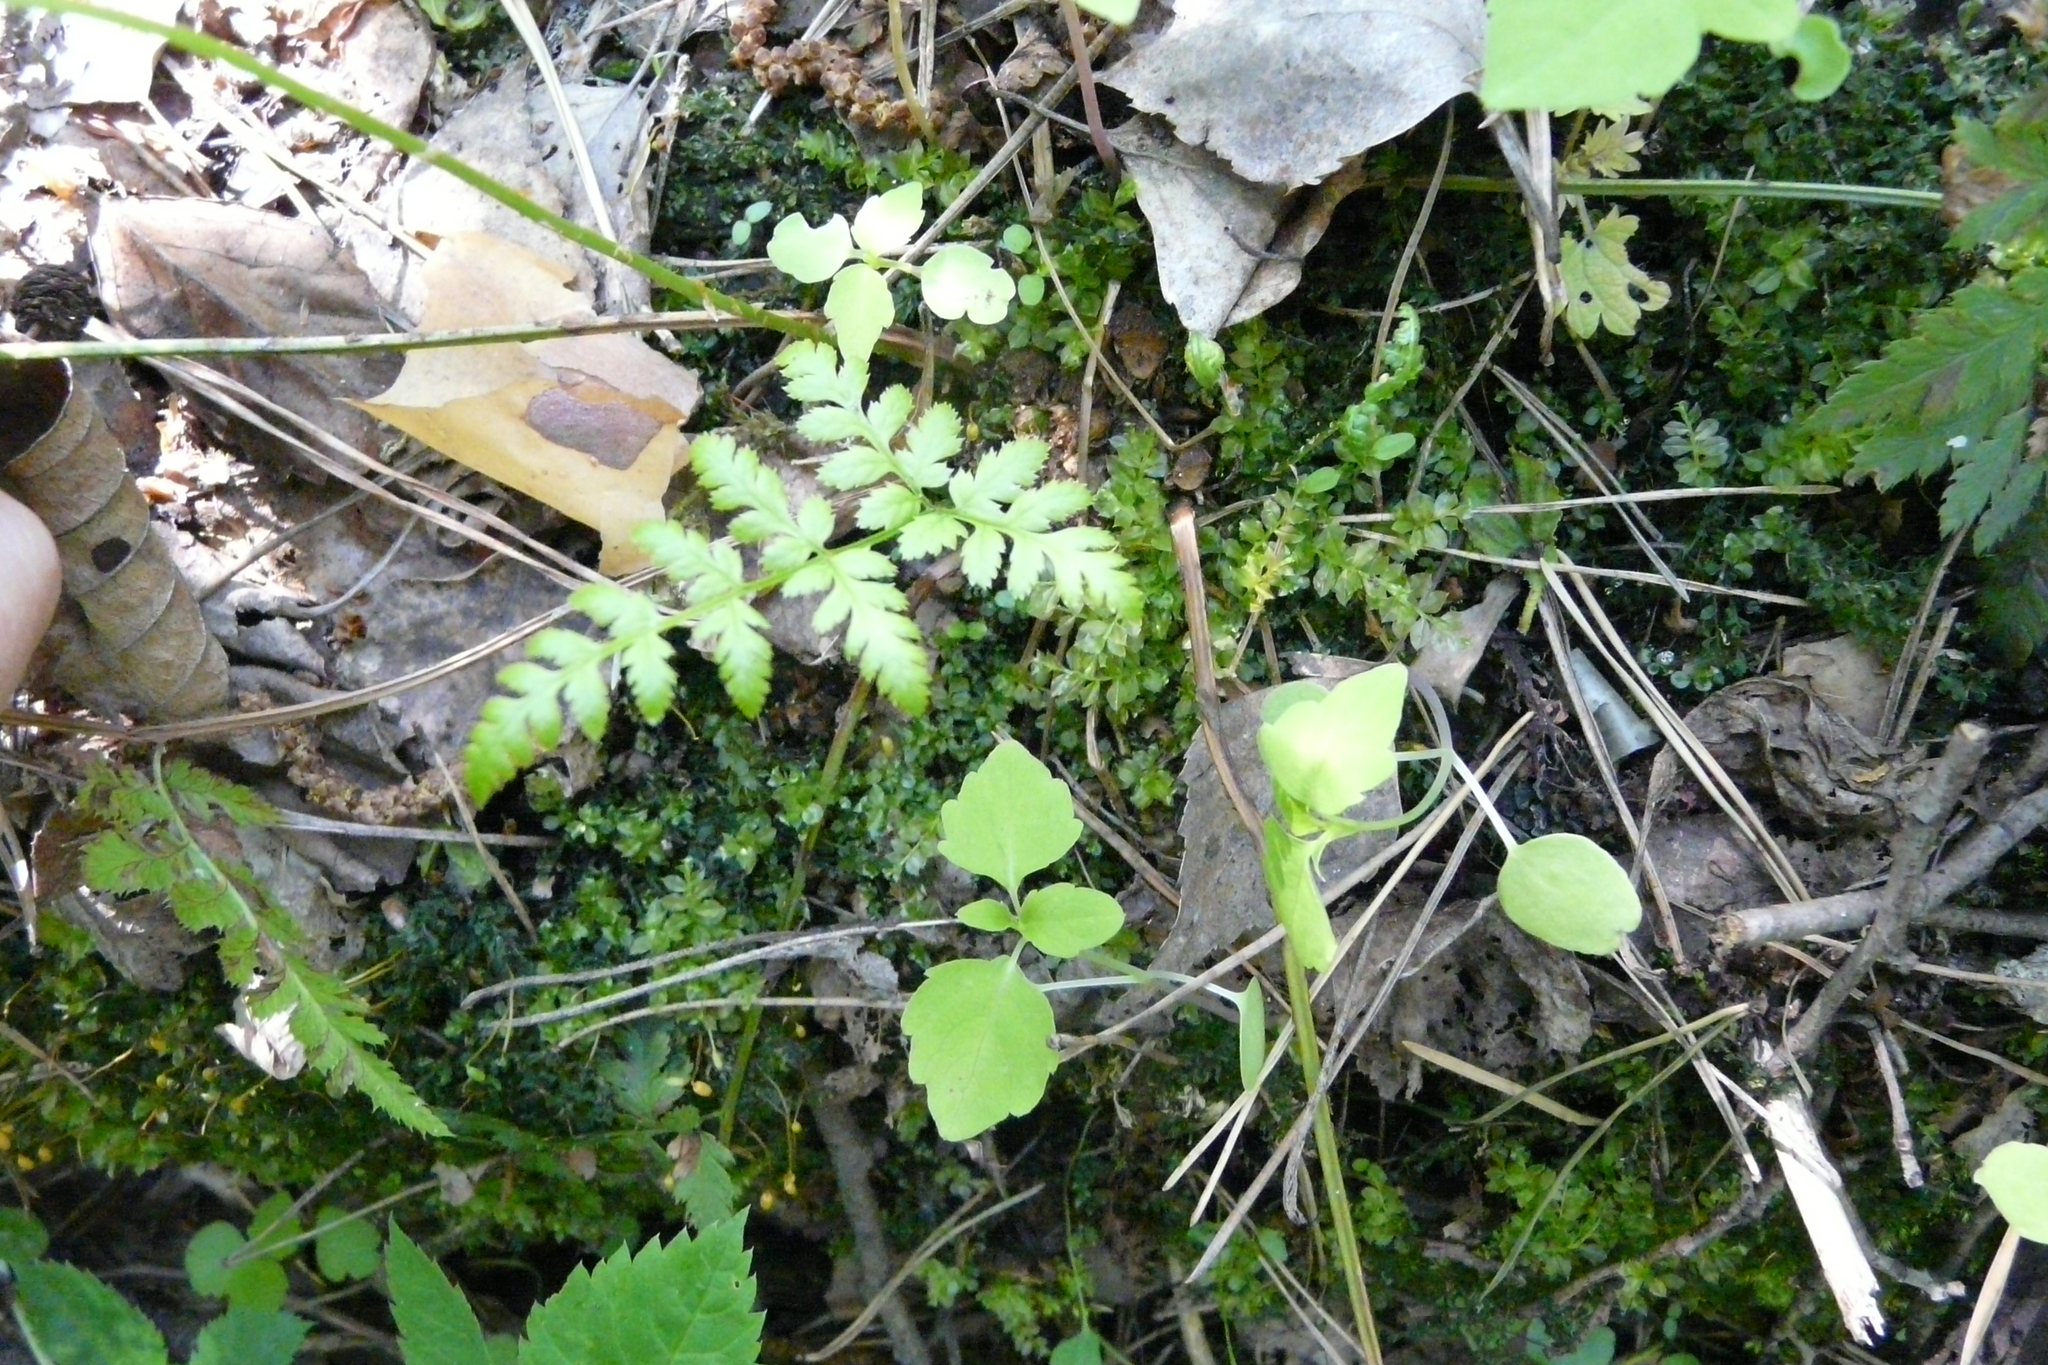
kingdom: Plantae
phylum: Tracheophyta
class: Polypodiopsida
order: Polypodiales
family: Dryopteridaceae
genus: Dryopteris
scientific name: Dryopteris carthusiana
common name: Narrow buckler-fern
